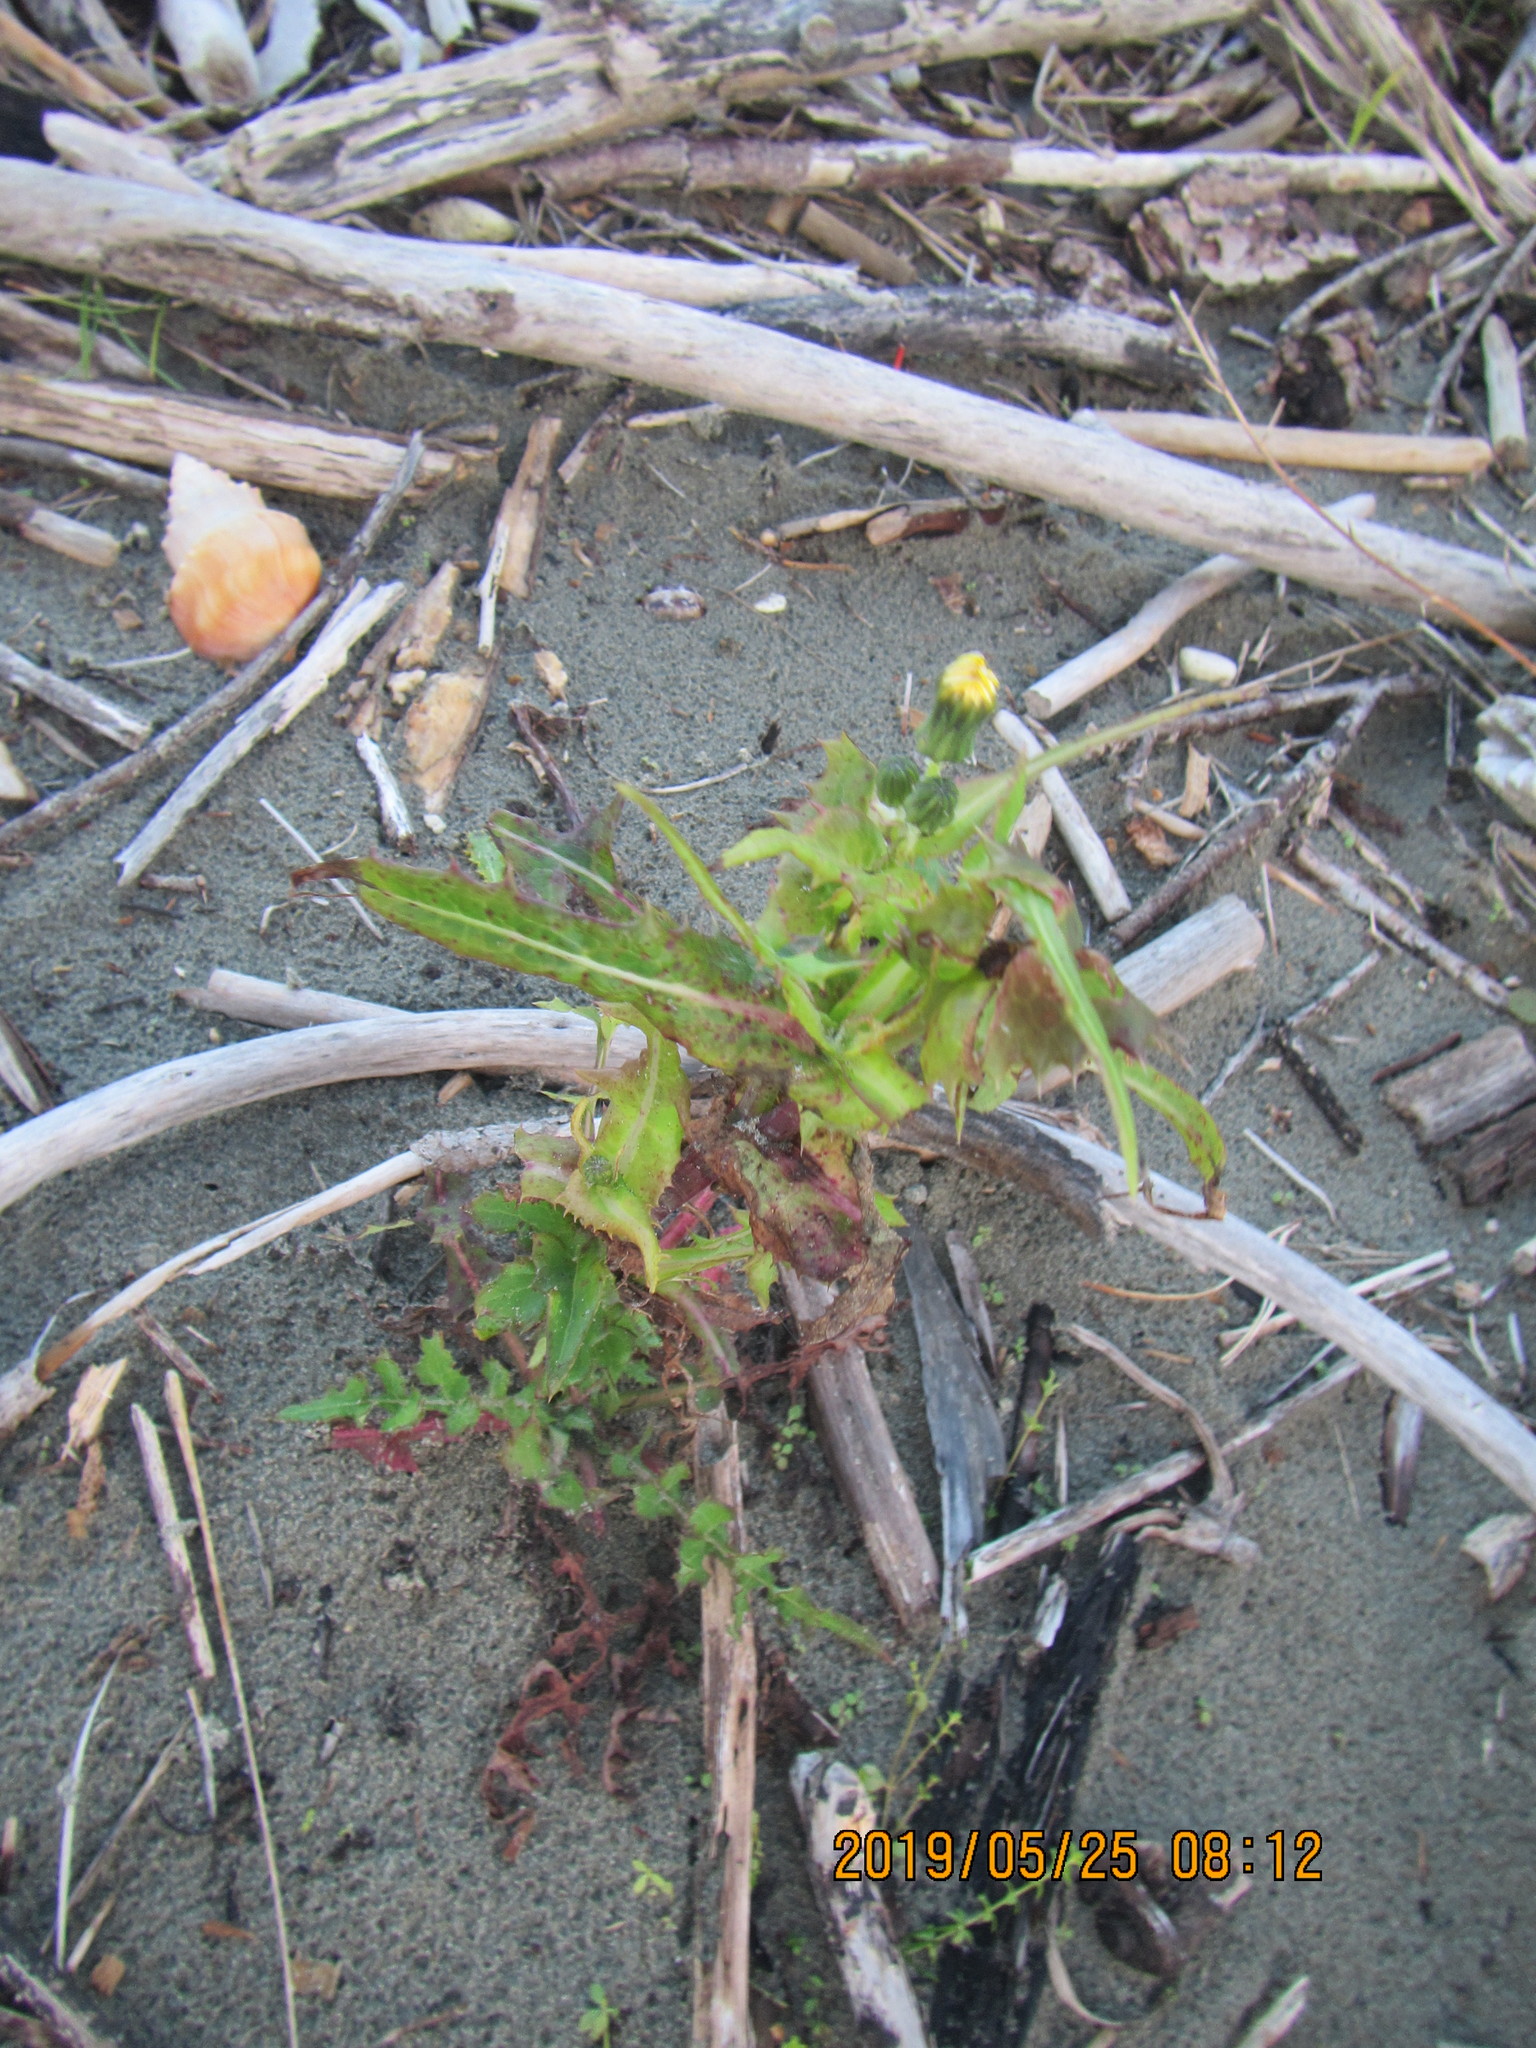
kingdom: Plantae
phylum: Tracheophyta
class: Magnoliopsida
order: Asterales
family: Asteraceae
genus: Sonchus
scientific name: Sonchus oleraceus
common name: Common sowthistle
